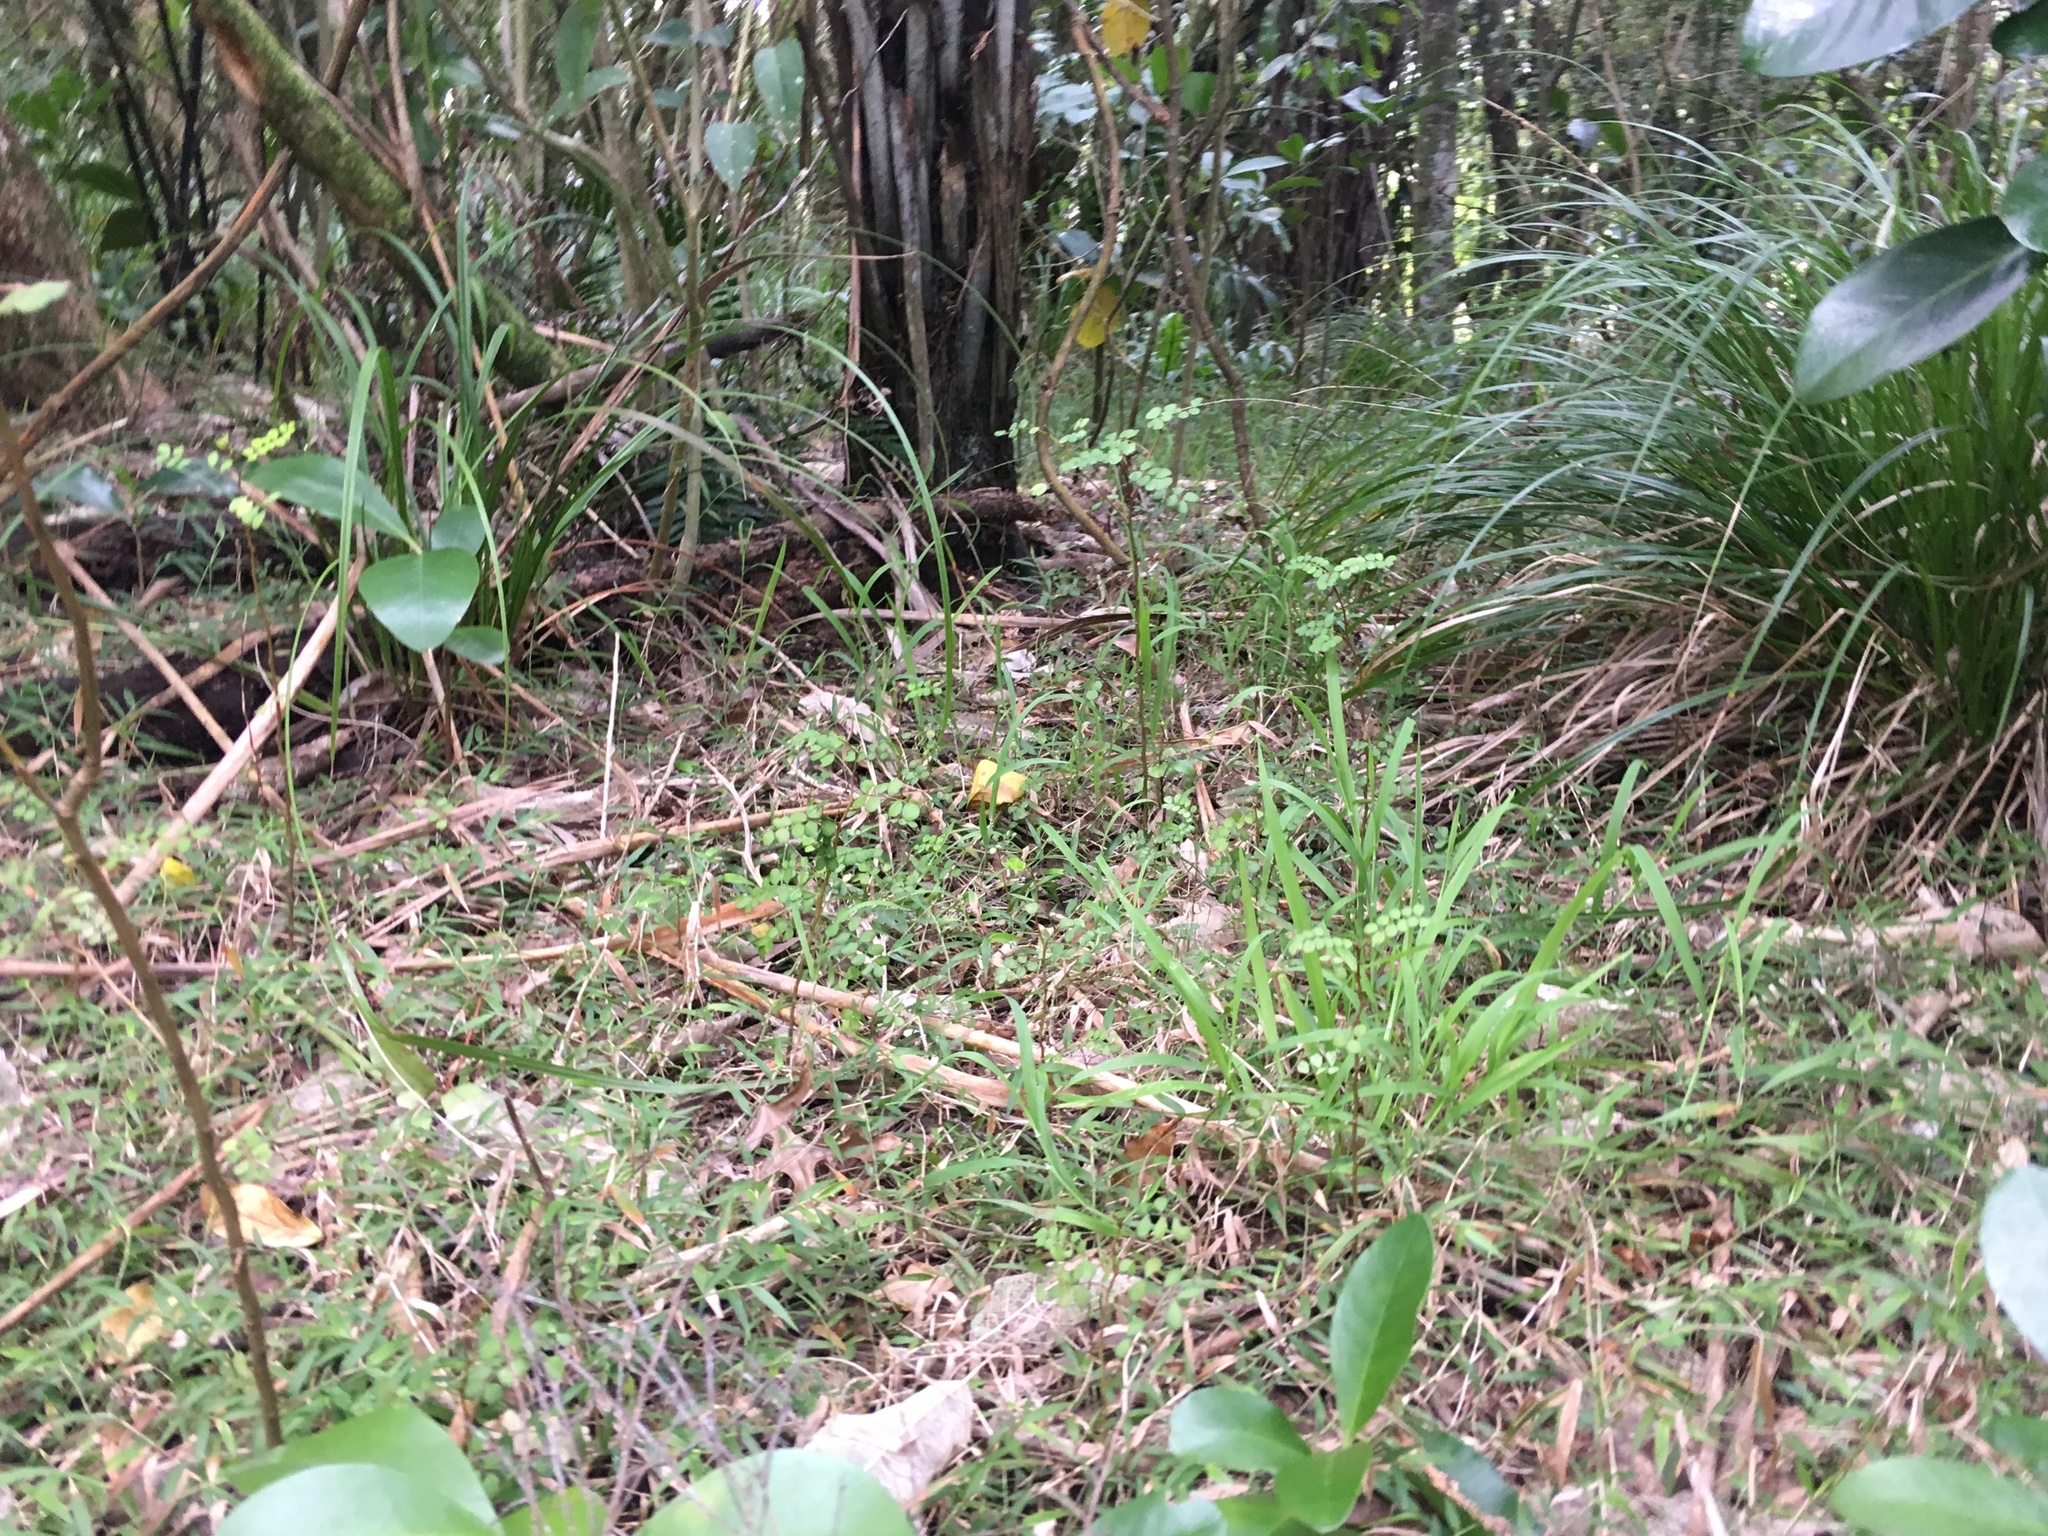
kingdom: Plantae
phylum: Tracheophyta
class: Magnoliopsida
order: Cucurbitales
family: Corynocarpaceae
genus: Corynocarpus
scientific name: Corynocarpus laevigatus
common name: New zealand laurel
